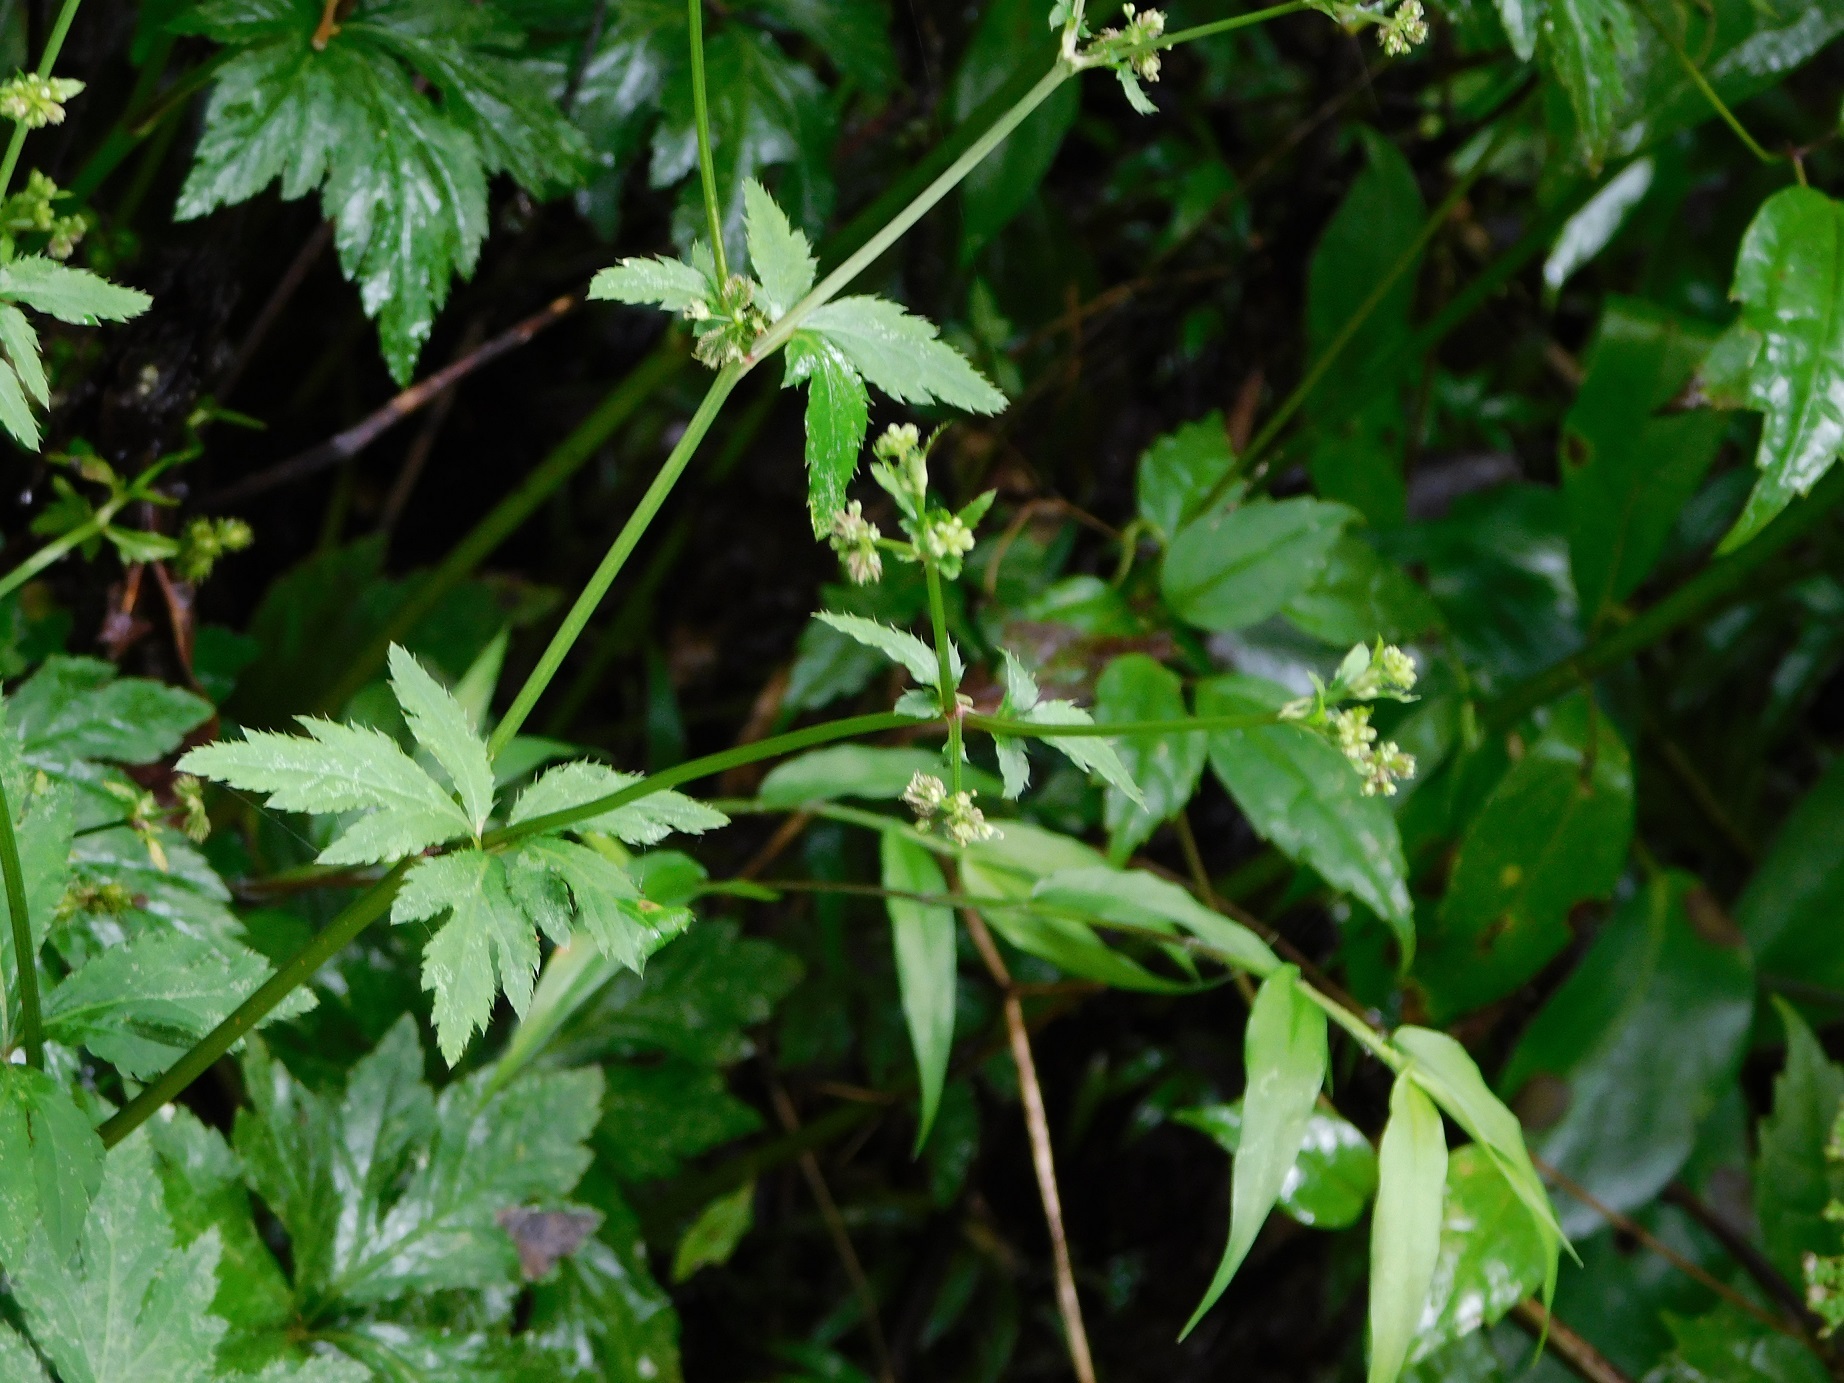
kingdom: Plantae
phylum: Tracheophyta
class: Magnoliopsida
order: Apiales
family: Apiaceae
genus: Sanicula
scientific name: Sanicula liberta
